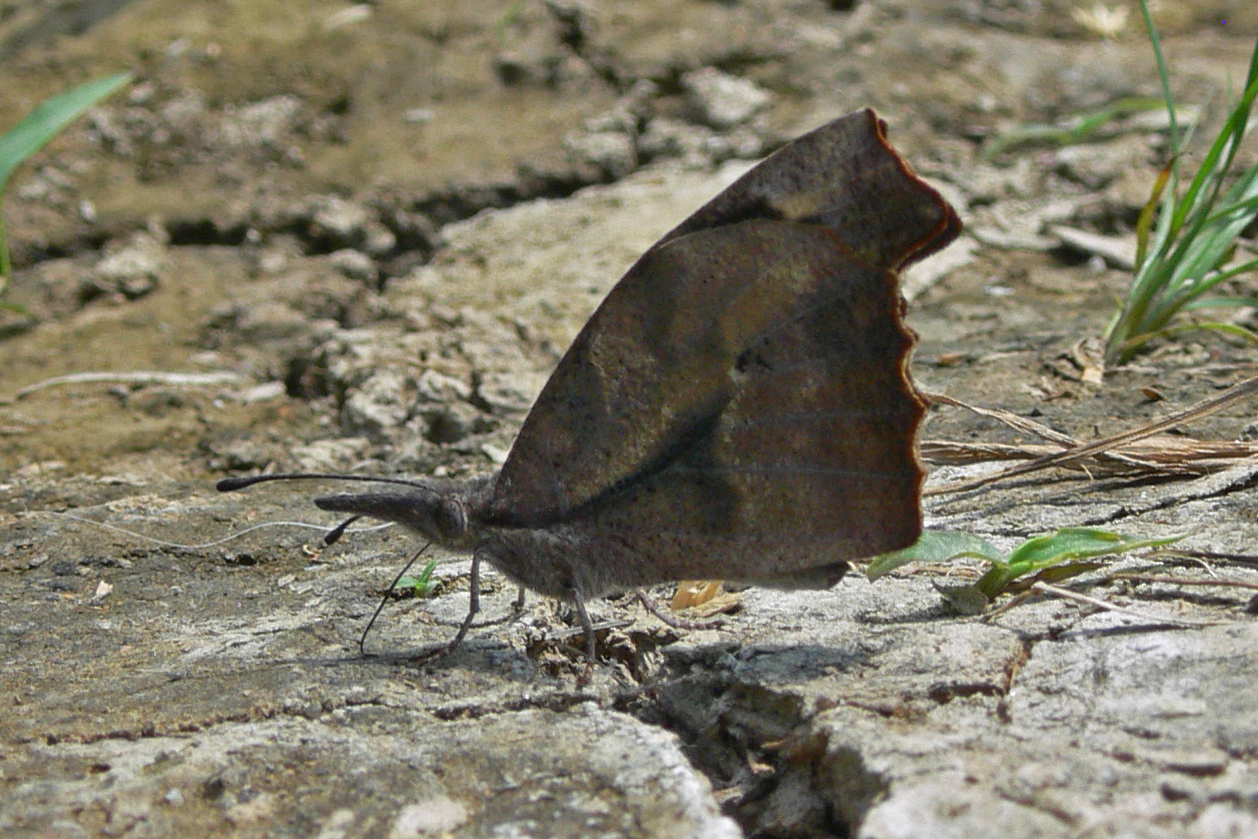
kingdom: Animalia
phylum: Arthropoda
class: Insecta
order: Lepidoptera
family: Nymphalidae
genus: Libytheana
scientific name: Libytheana carinenta
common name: American snout
